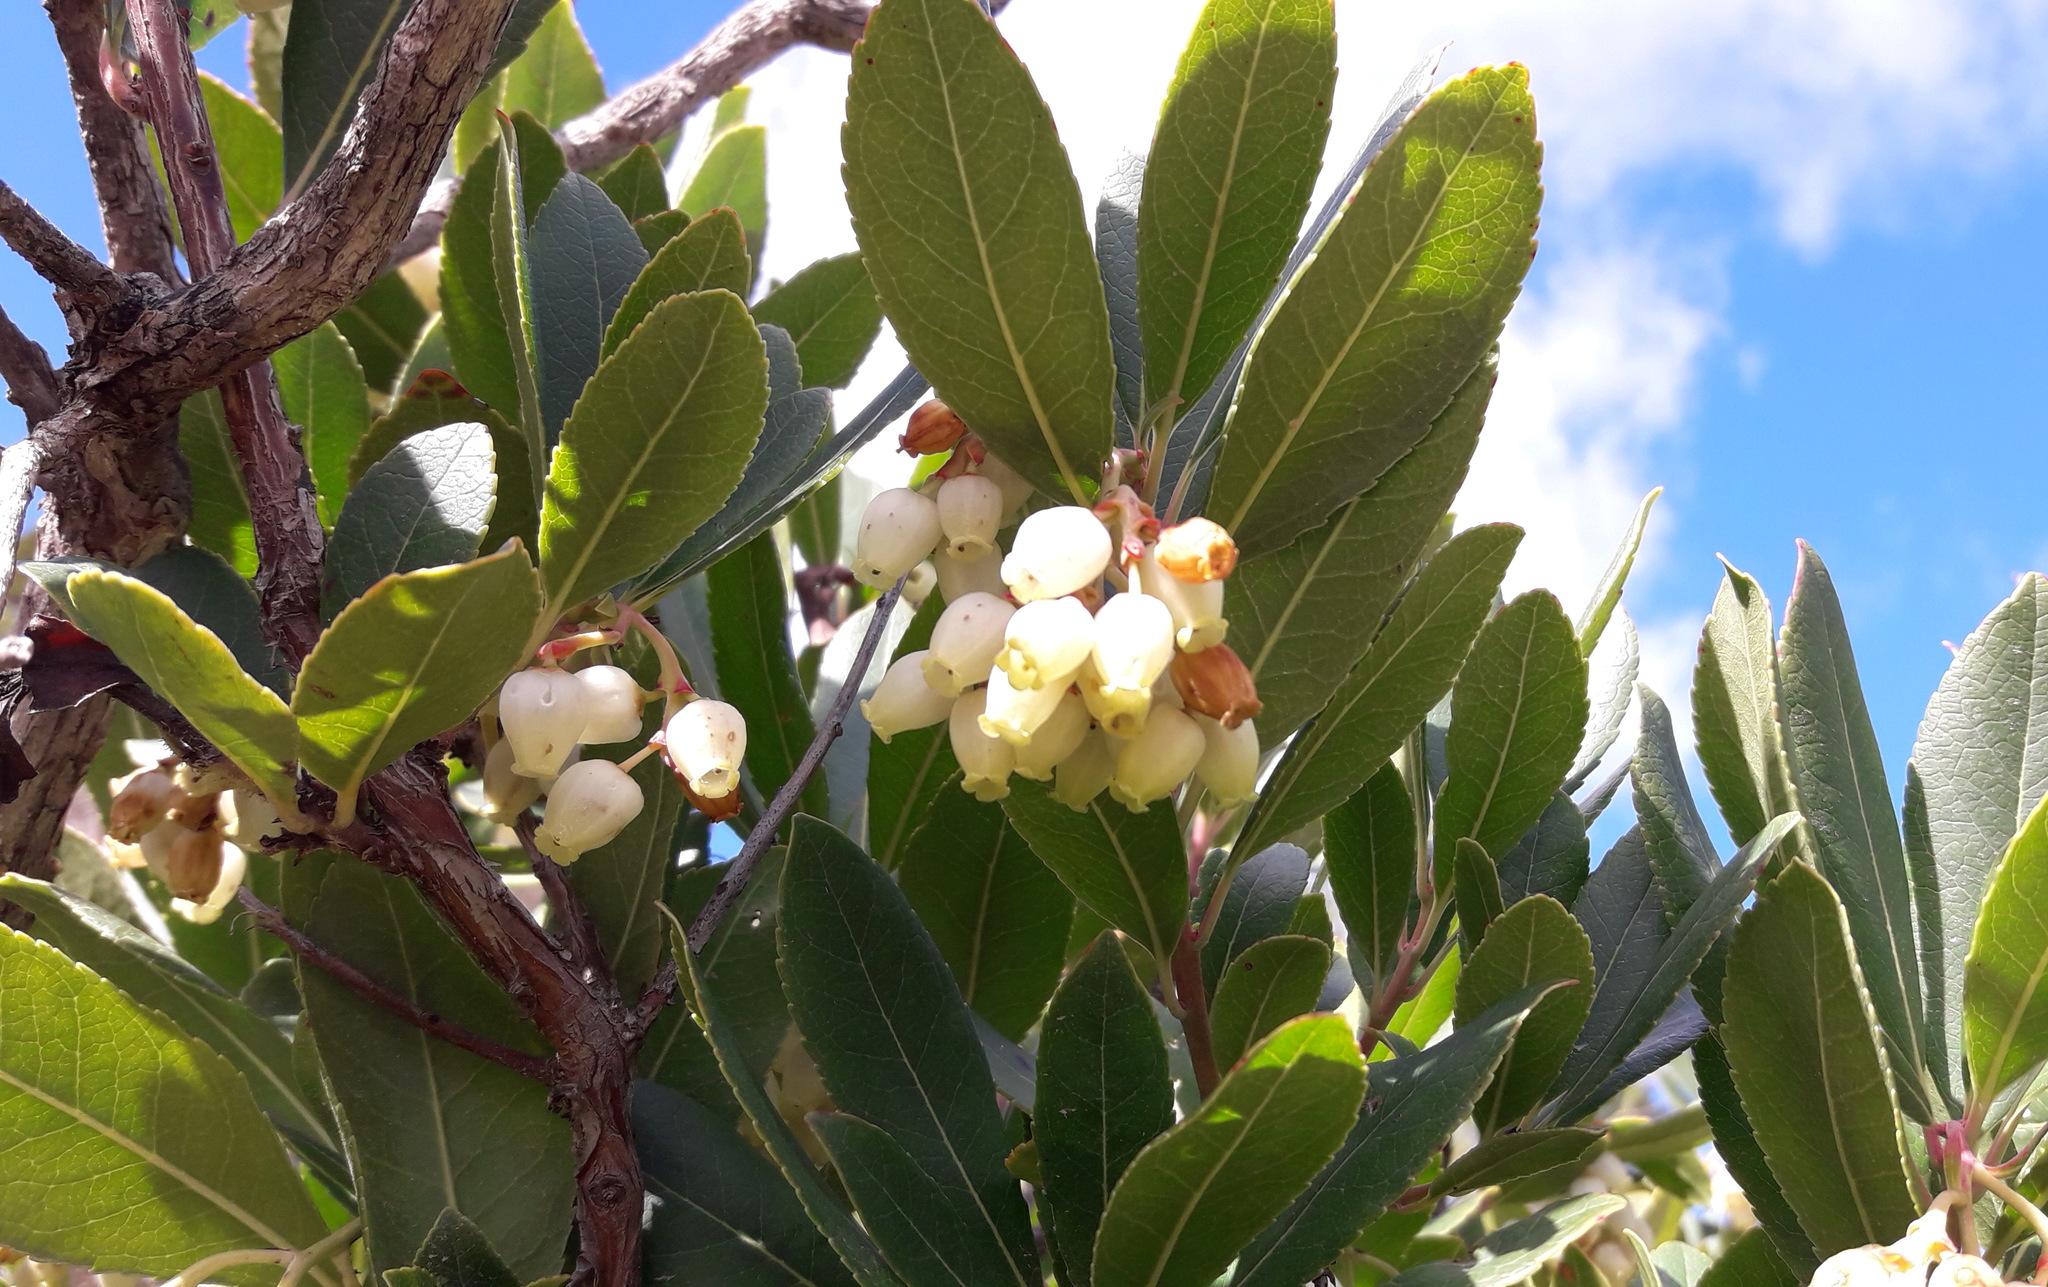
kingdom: Plantae
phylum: Tracheophyta
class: Magnoliopsida
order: Ericales
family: Ericaceae
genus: Arbutus
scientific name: Arbutus unedo
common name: Strawberry-tree
